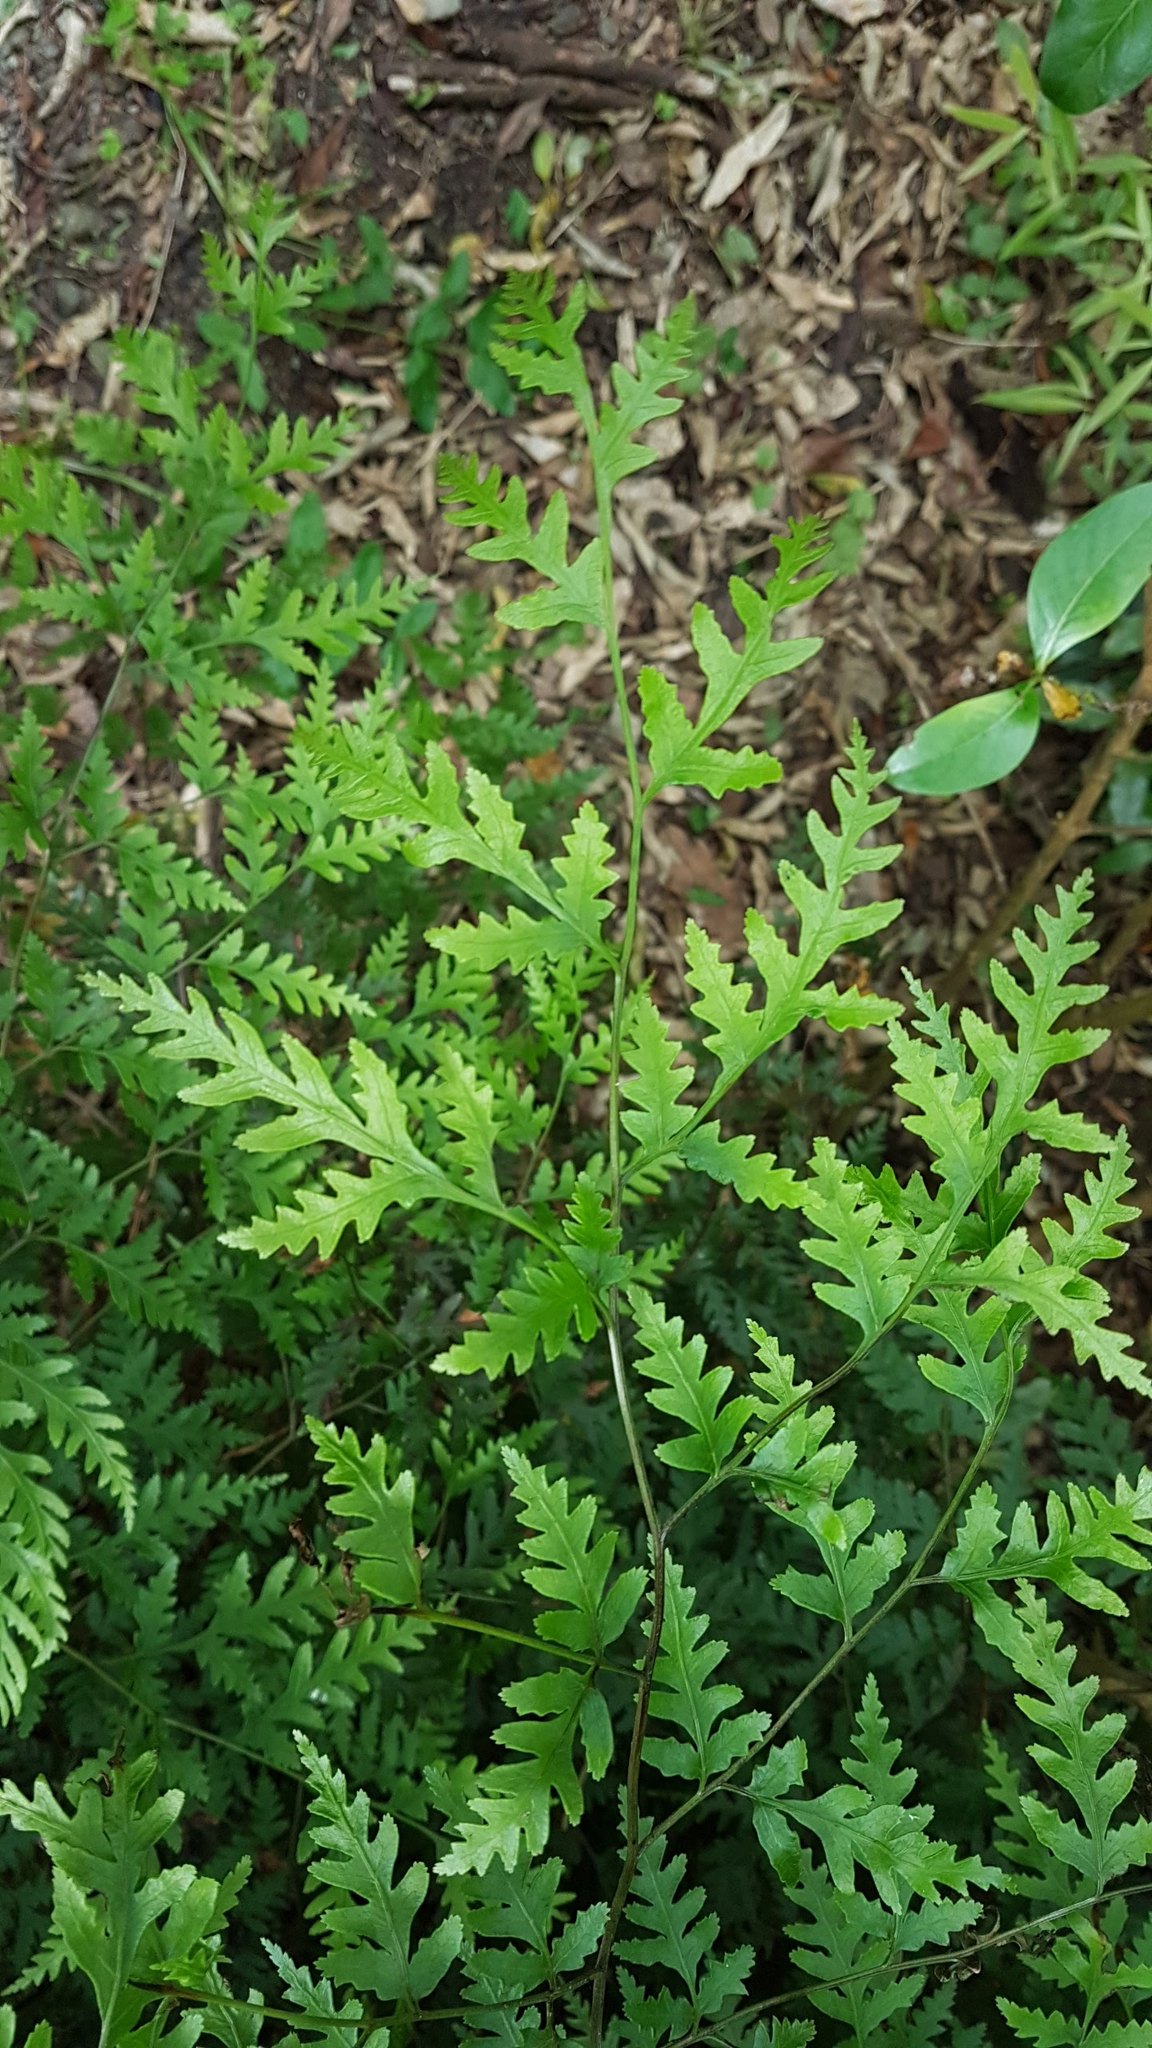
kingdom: Plantae
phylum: Tracheophyta
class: Polypodiopsida
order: Polypodiales
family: Pteridaceae
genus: Pteris
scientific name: Pteris macilenta
